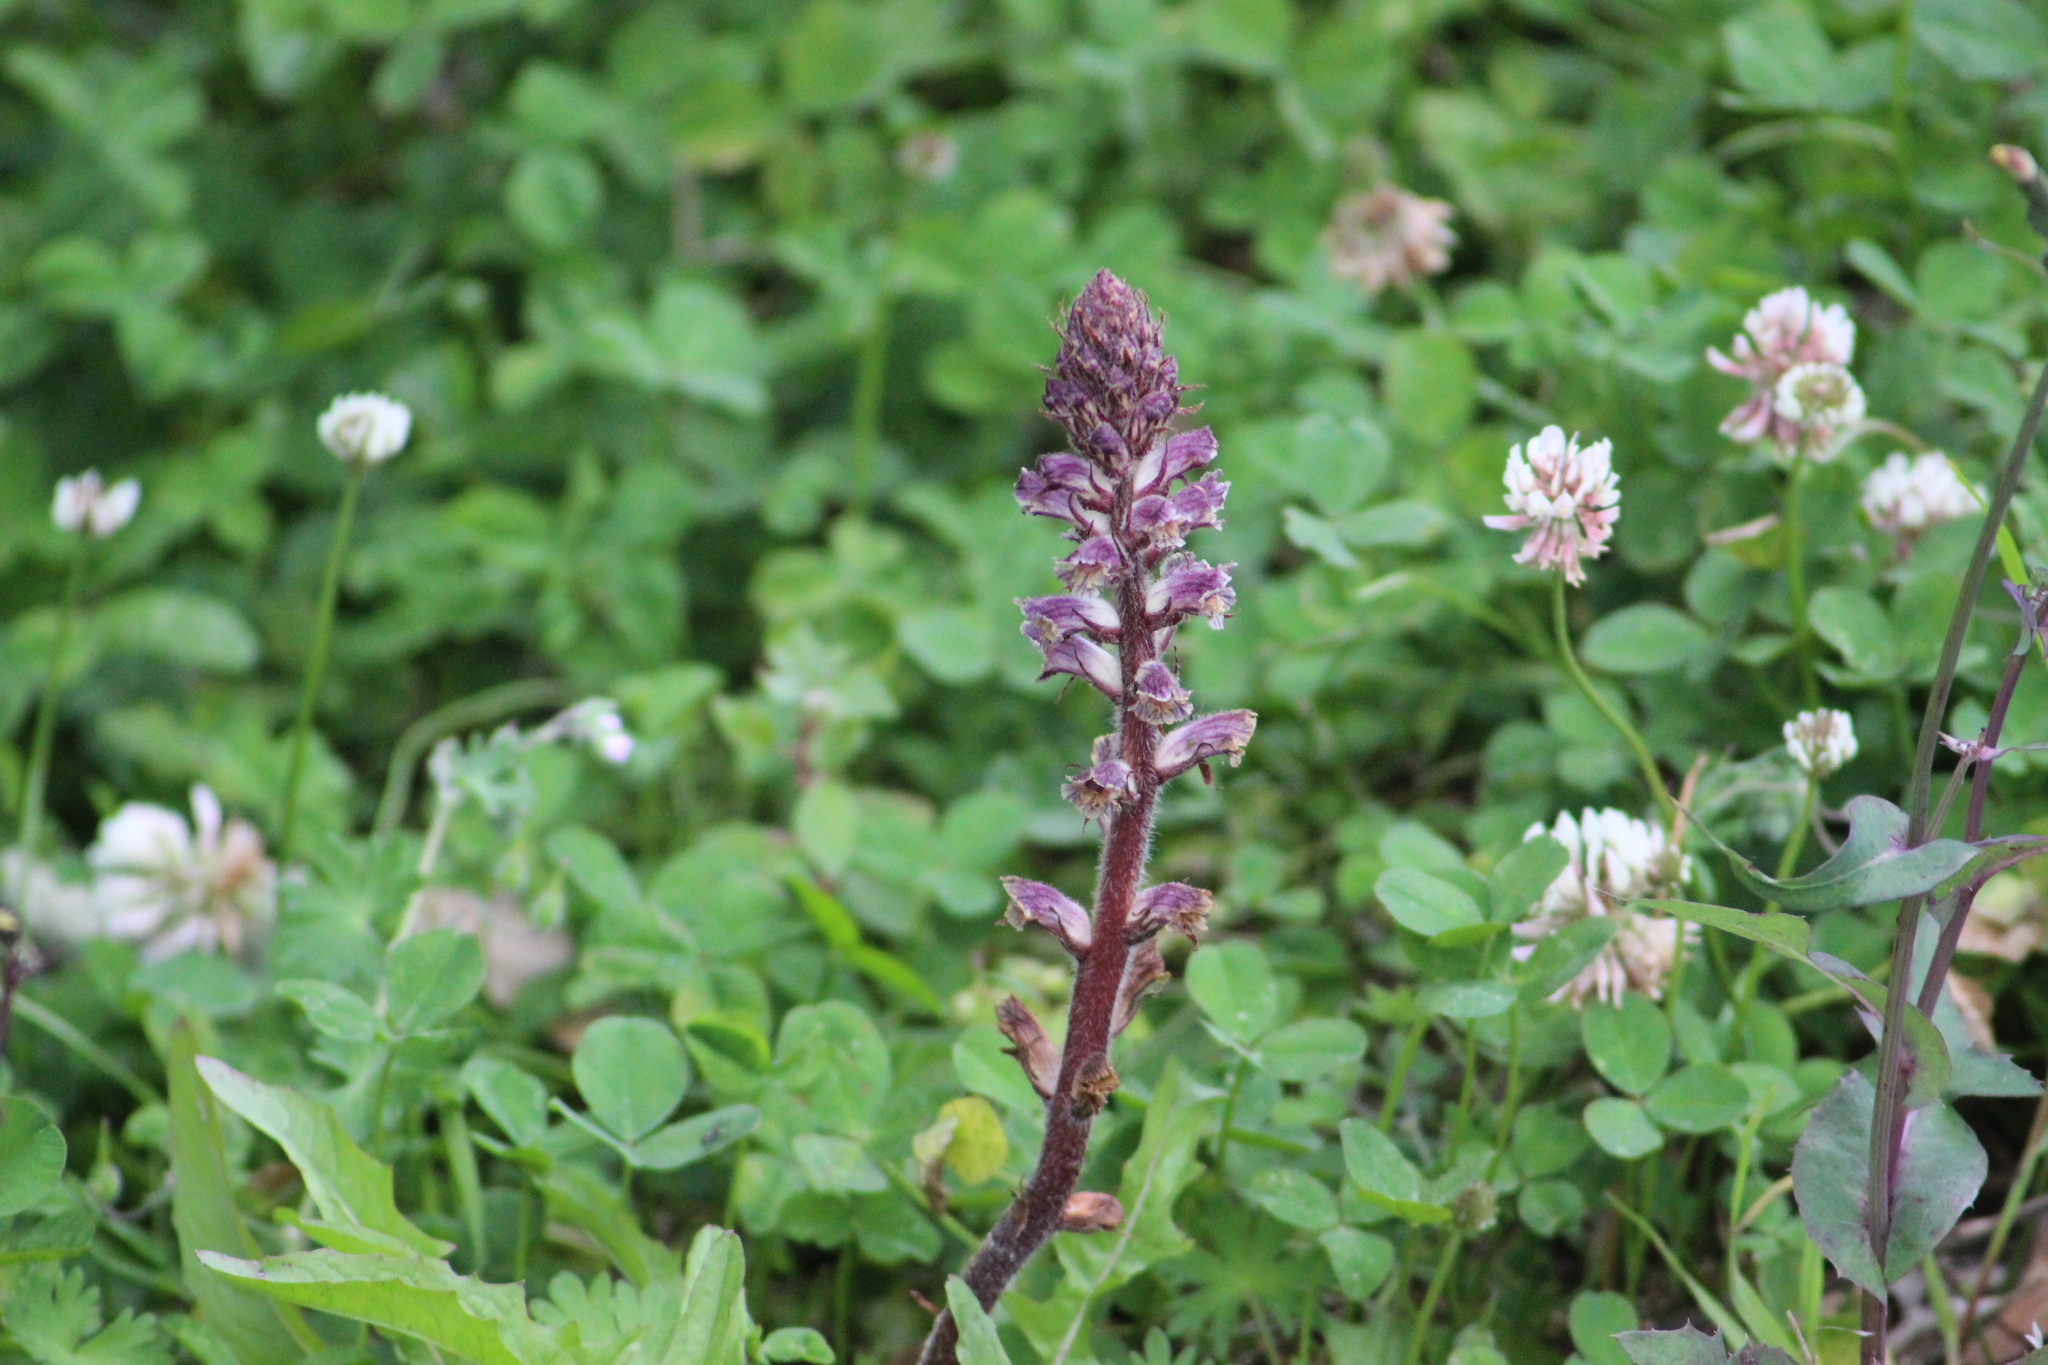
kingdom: Plantae
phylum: Tracheophyta
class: Magnoliopsida
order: Lamiales
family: Orobanchaceae
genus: Orobanche
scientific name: Orobanche minor
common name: Common broomrape
